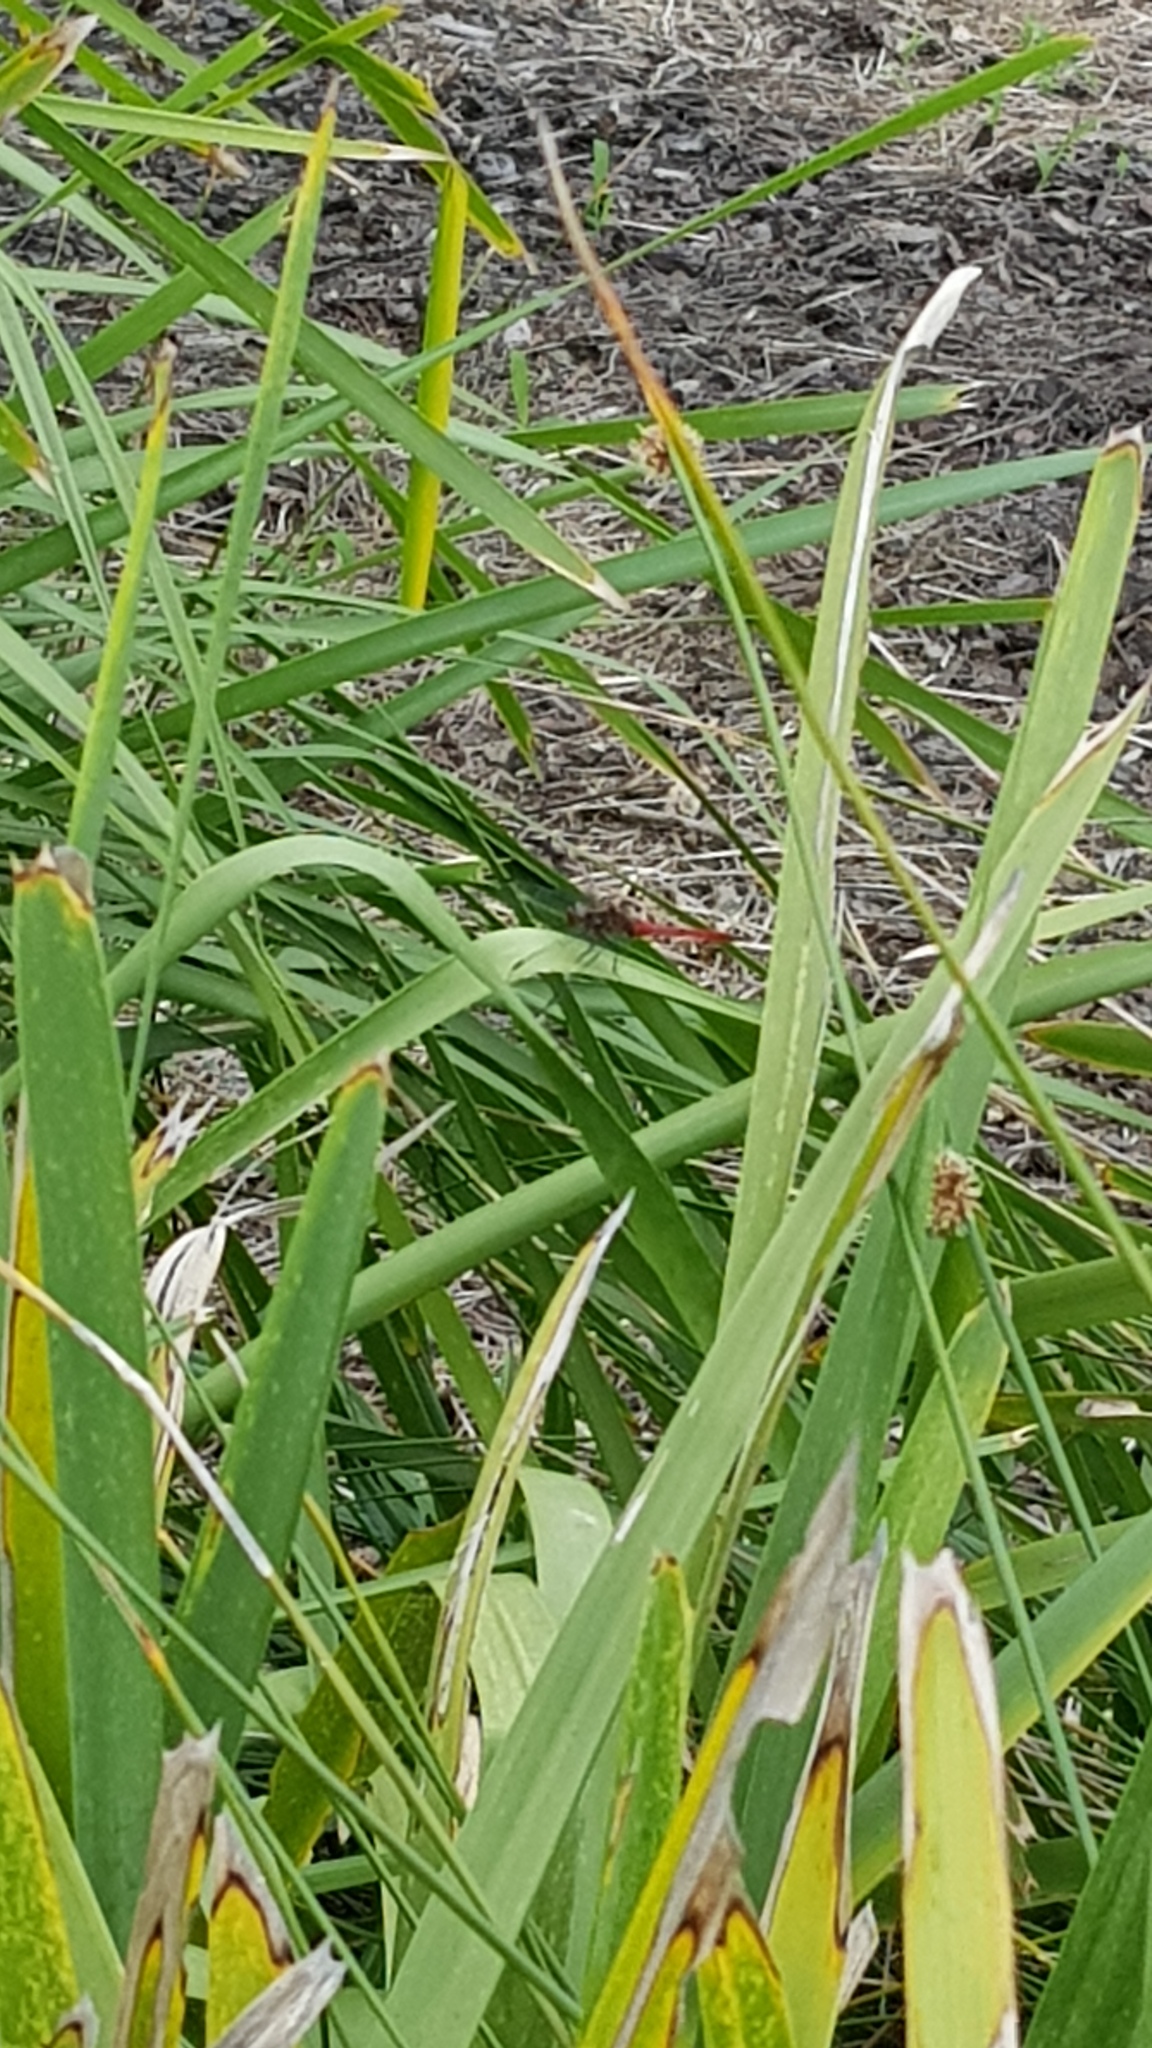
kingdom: Animalia
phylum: Arthropoda
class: Insecta
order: Odonata
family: Libellulidae
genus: Orthetrum
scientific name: Orthetrum villosovittatum
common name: Firery skimmer
